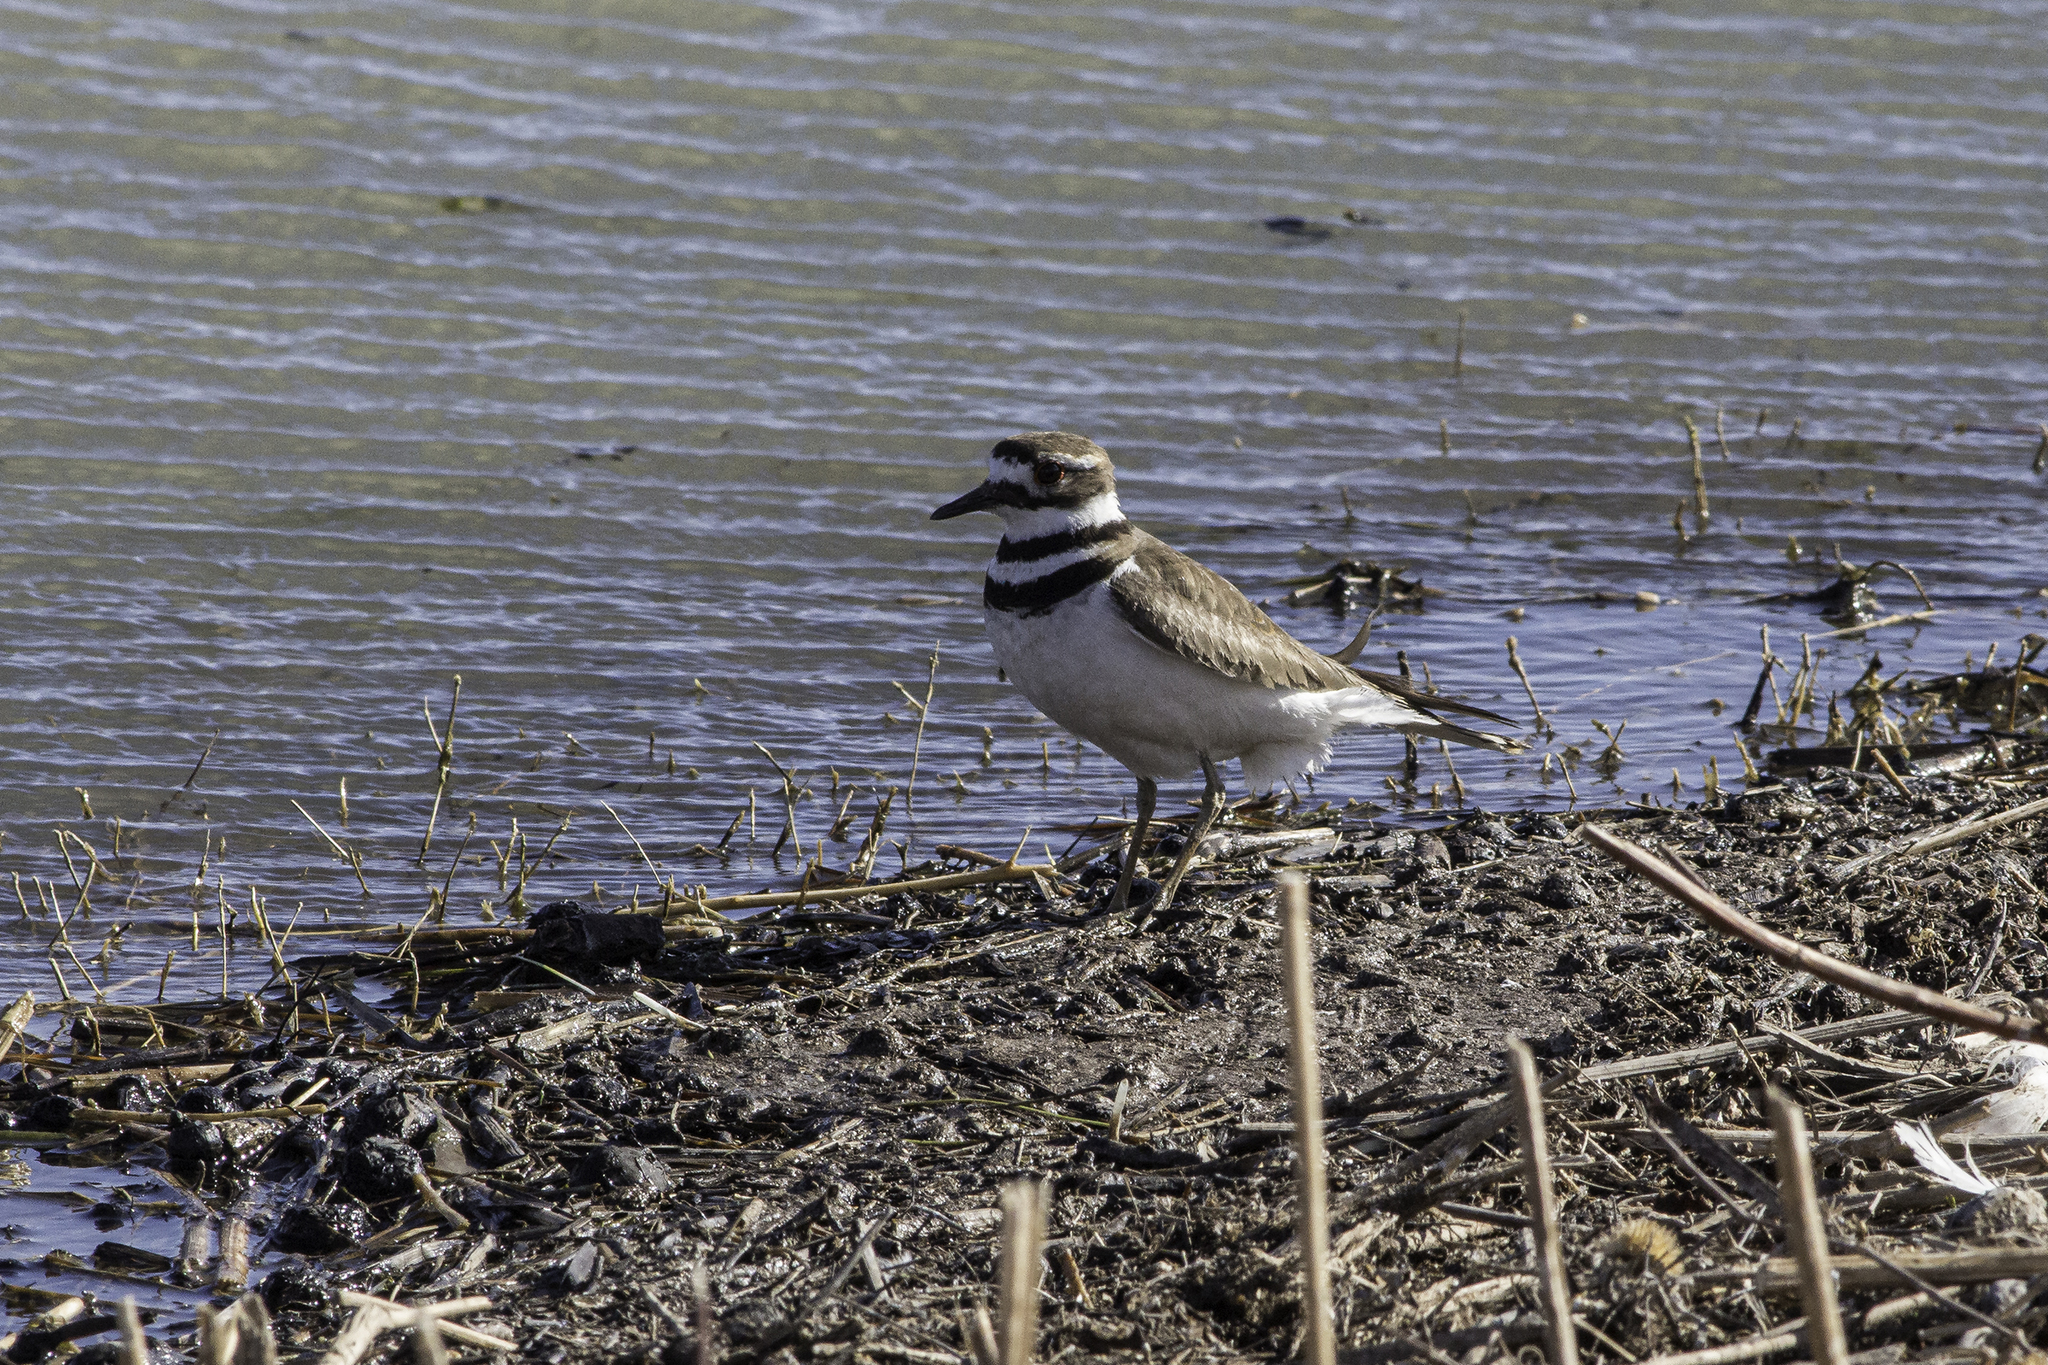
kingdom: Animalia
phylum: Chordata
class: Aves
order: Charadriiformes
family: Charadriidae
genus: Charadrius
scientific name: Charadrius vociferus
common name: Killdeer
